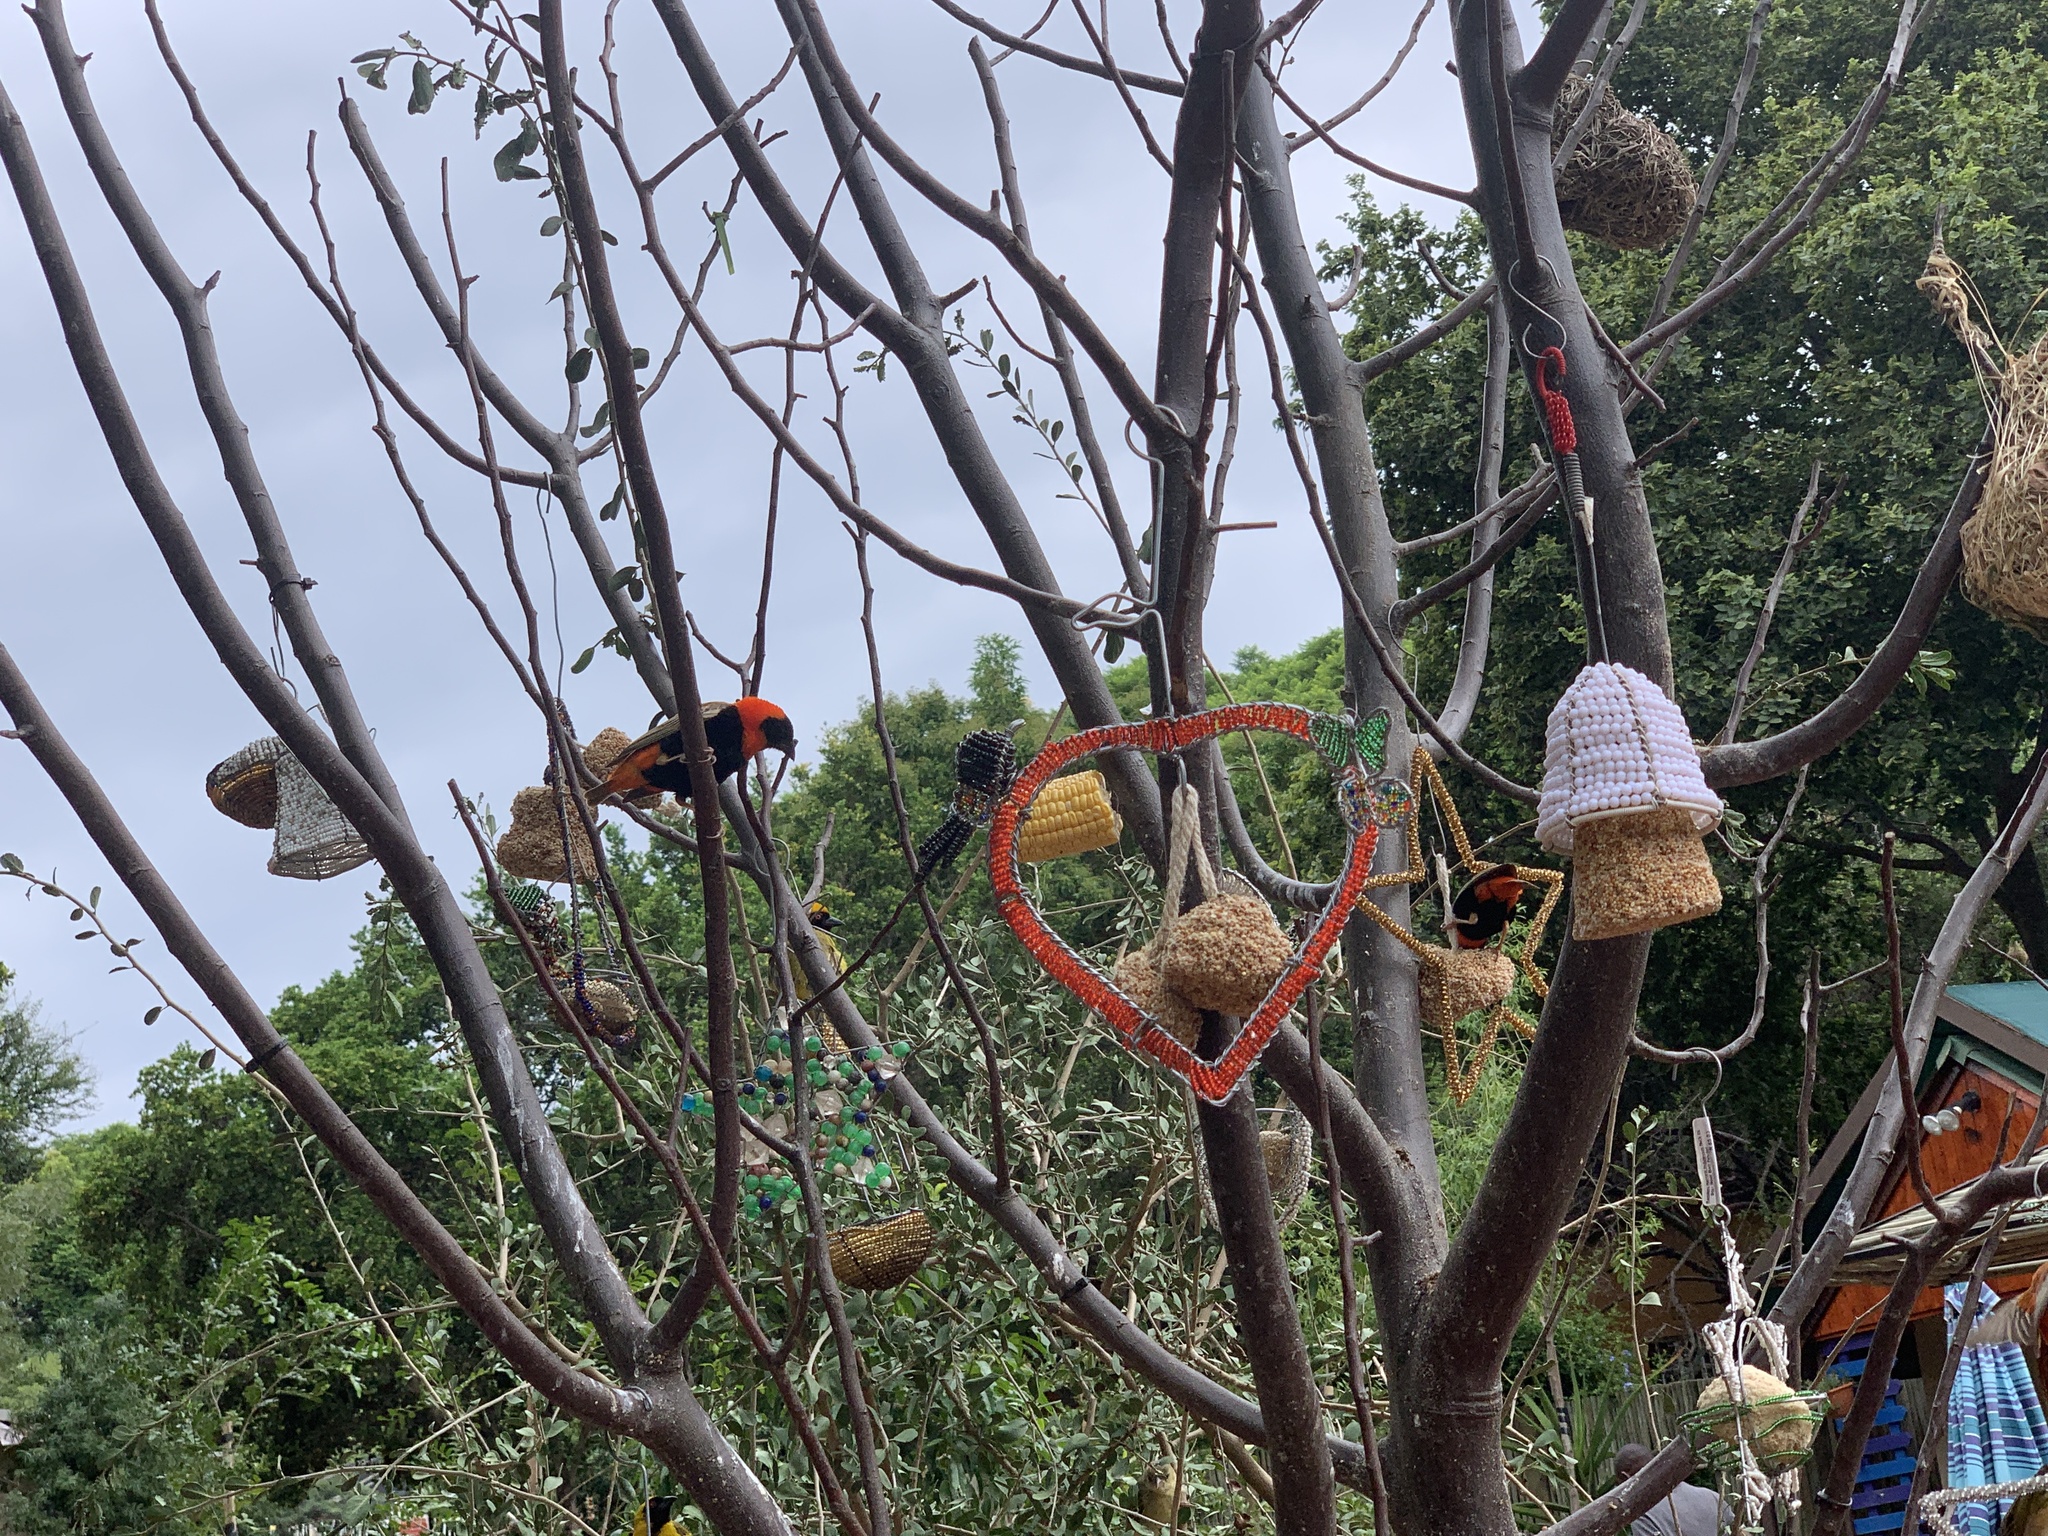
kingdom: Animalia
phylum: Chordata
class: Aves
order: Passeriformes
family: Ploceidae
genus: Euplectes
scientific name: Euplectes orix
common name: Southern red bishop
